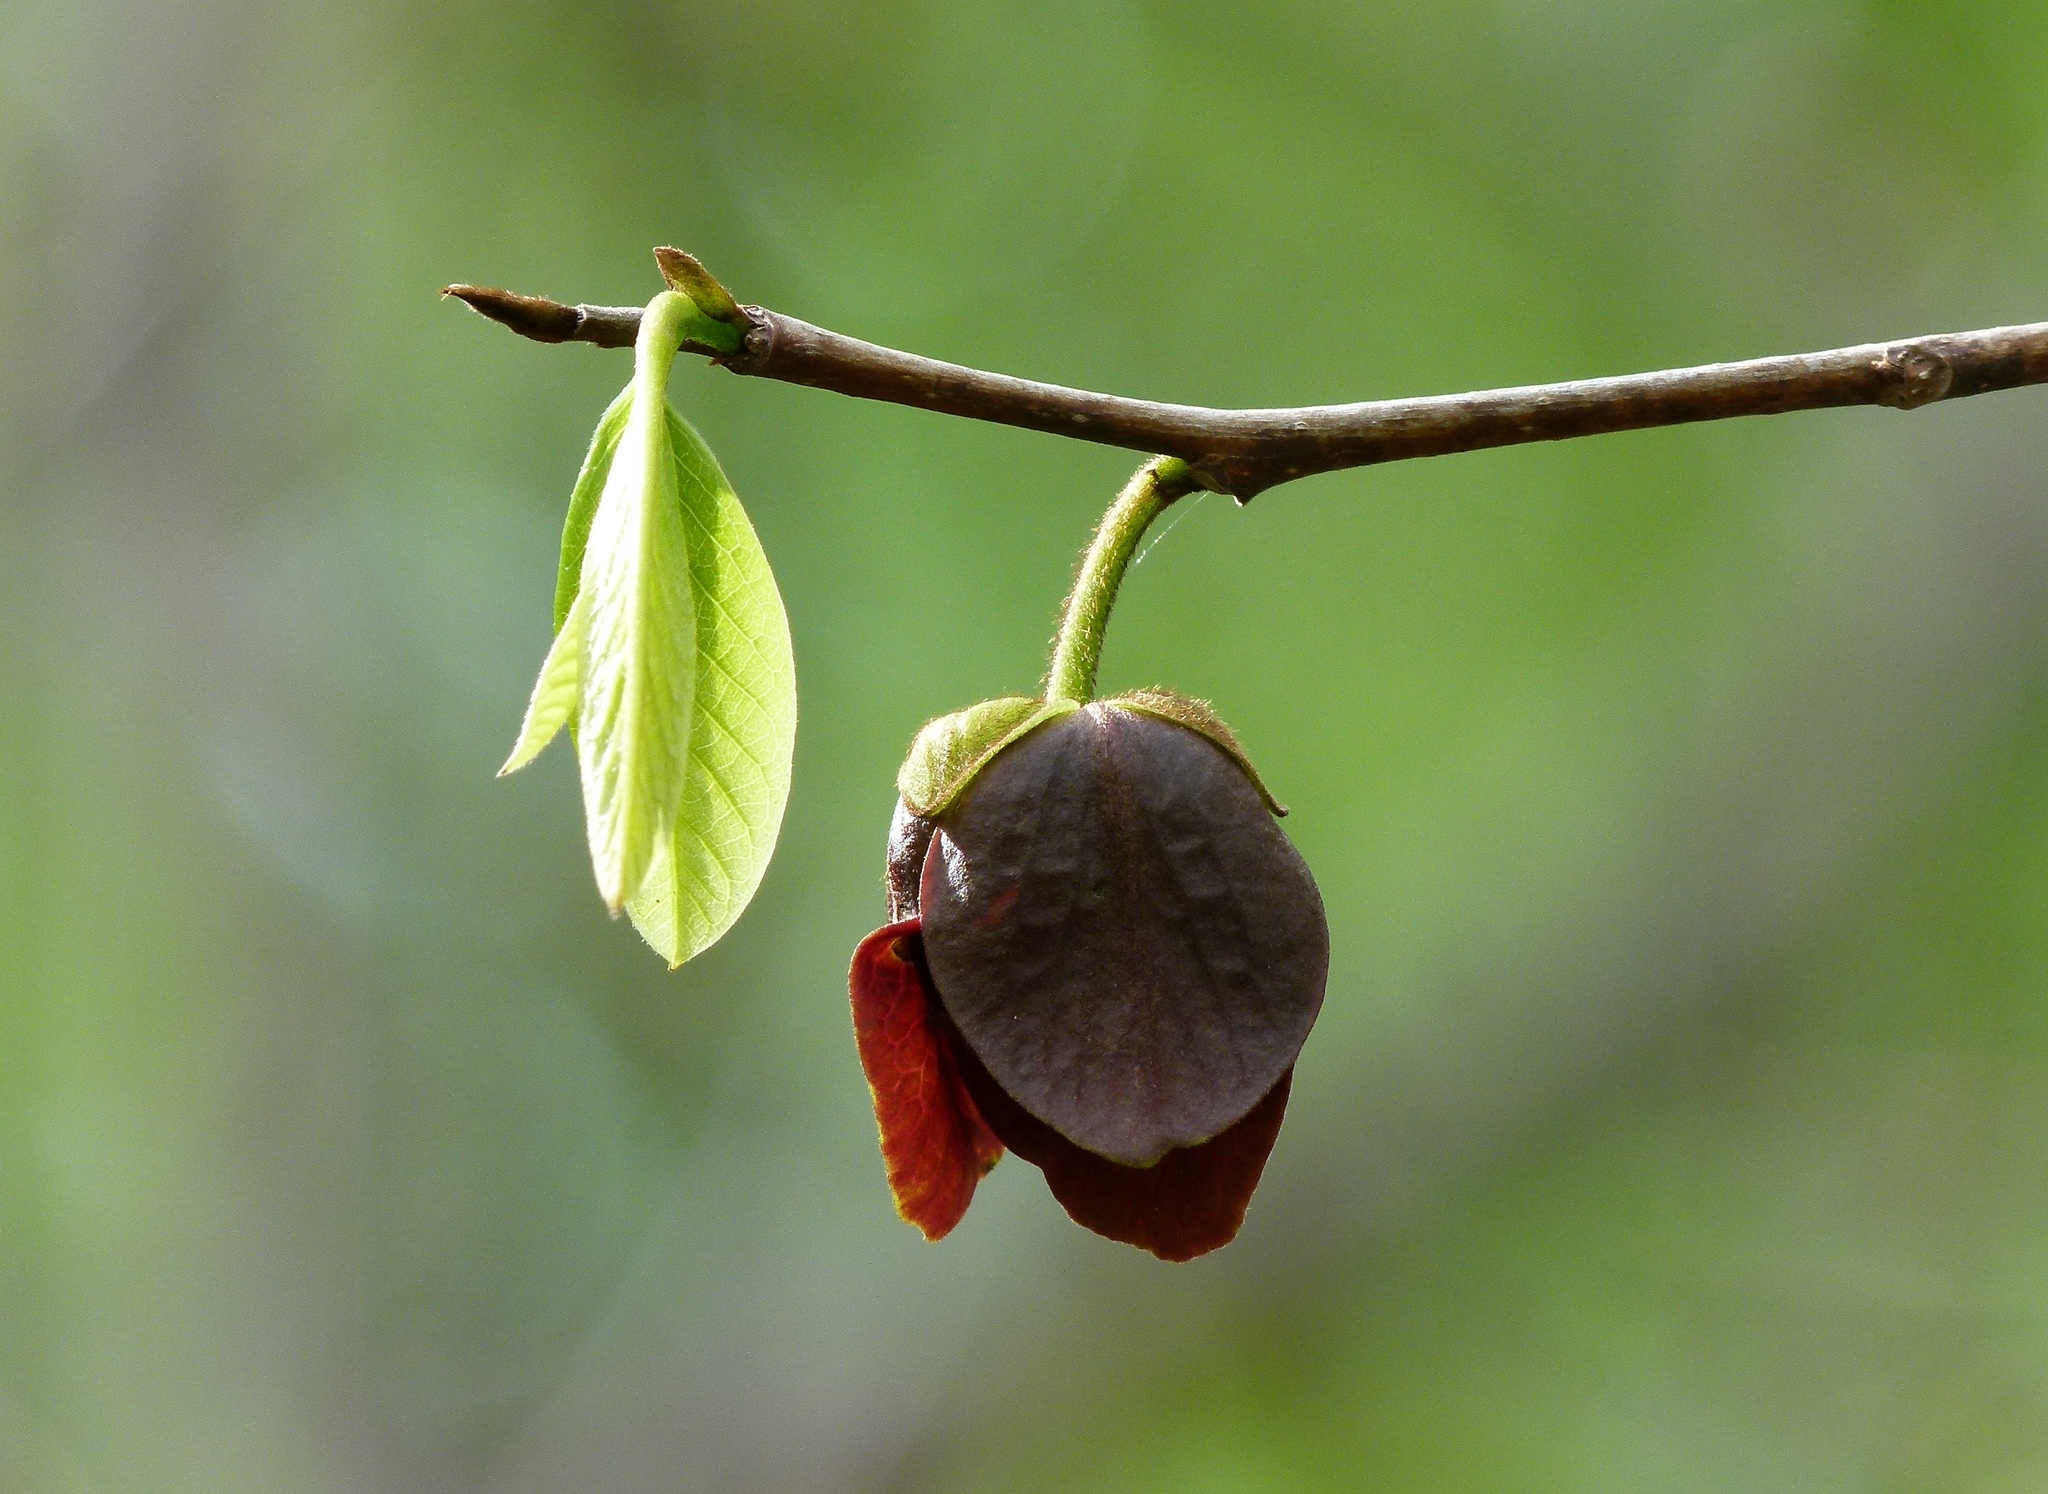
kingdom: Plantae
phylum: Tracheophyta
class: Magnoliopsida
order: Magnoliales
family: Annonaceae
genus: Asimina
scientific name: Asimina triloba
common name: Dog-banana
